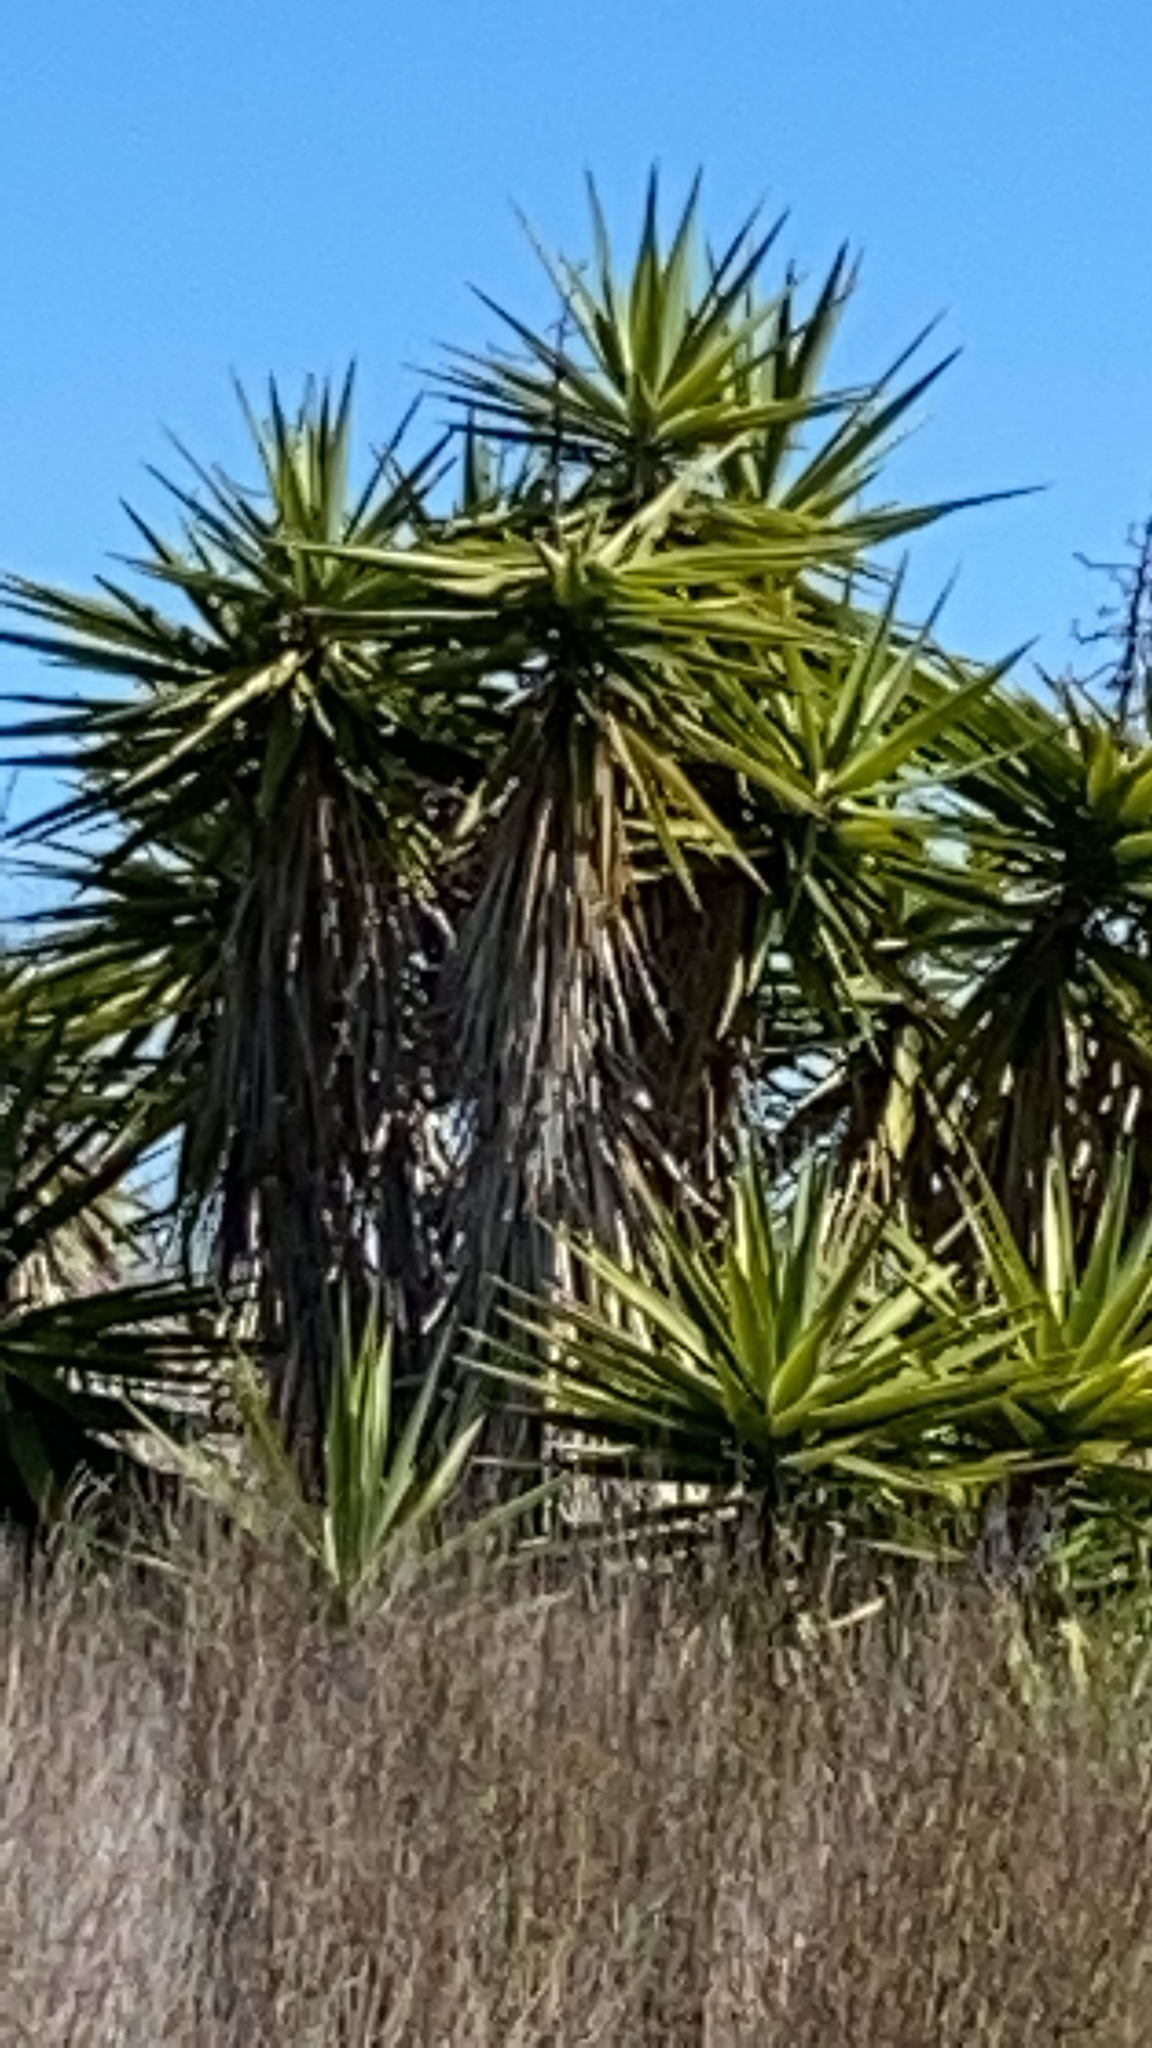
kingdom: Plantae
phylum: Tracheophyta
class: Liliopsida
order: Asparagales
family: Asparagaceae
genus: Yucca
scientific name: Yucca gigantea
